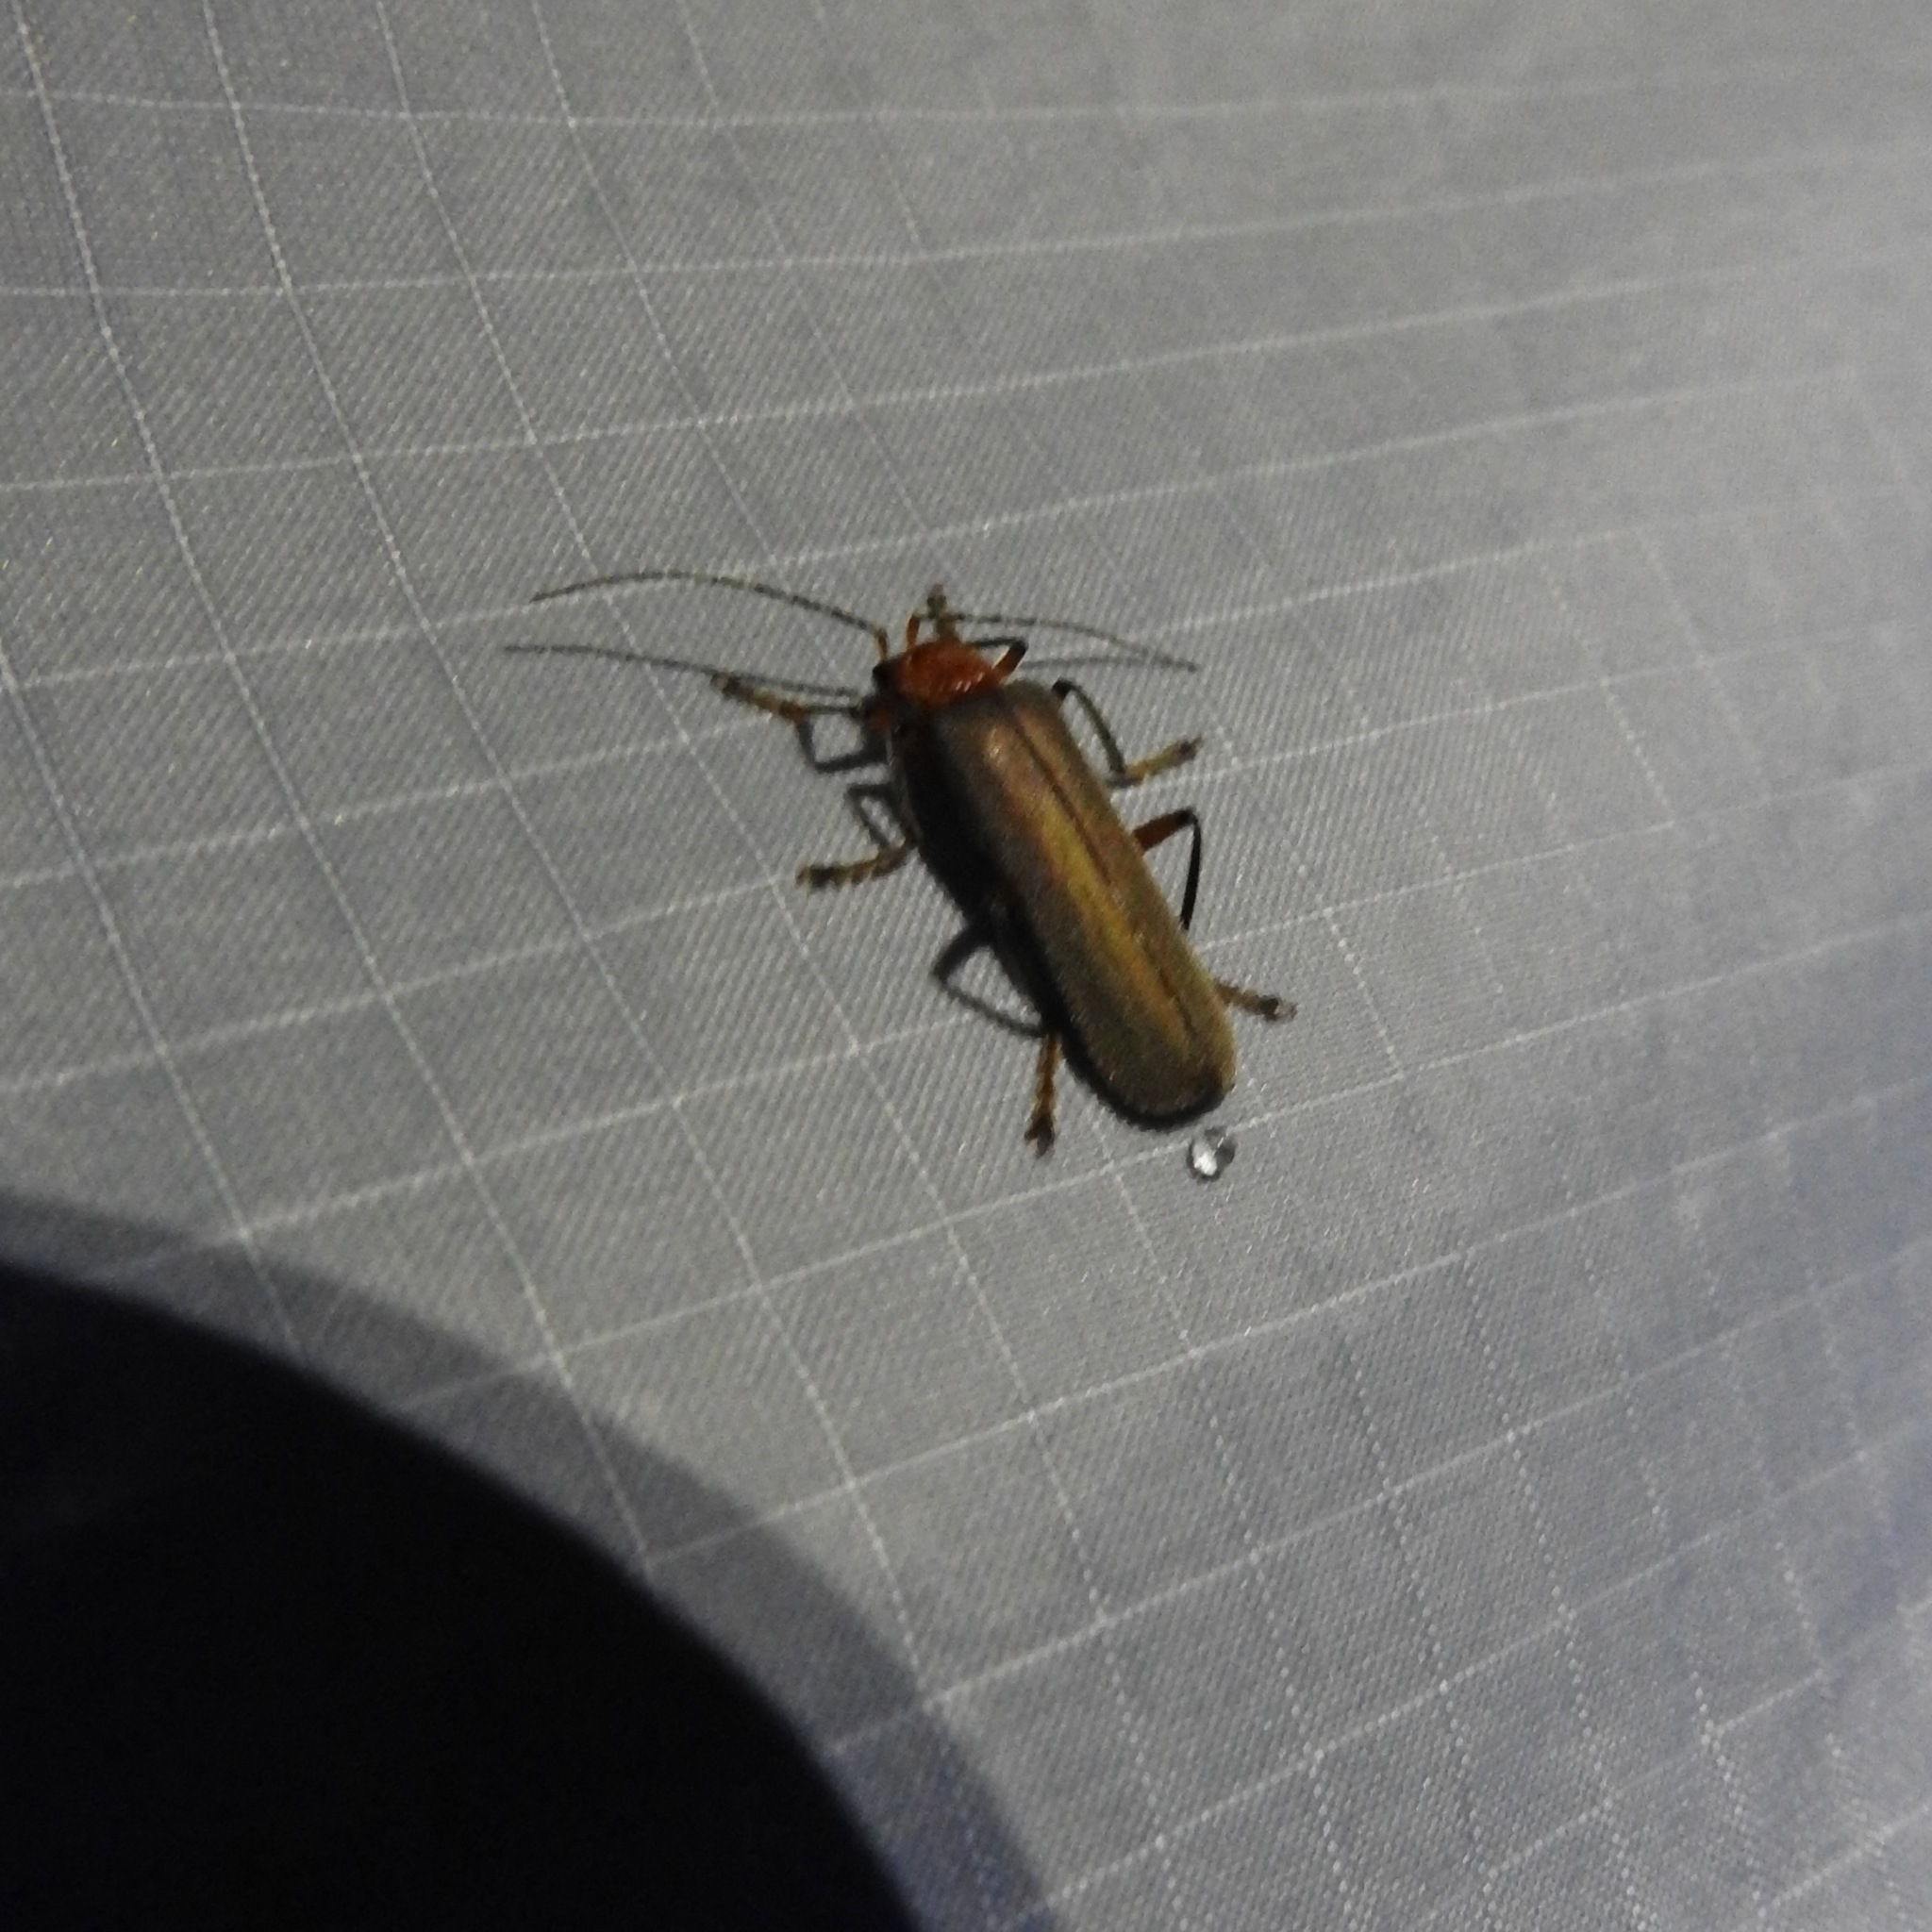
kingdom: Animalia
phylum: Arthropoda
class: Insecta
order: Coleoptera
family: Cantharidae
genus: Pacificanthia
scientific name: Pacificanthia consors
